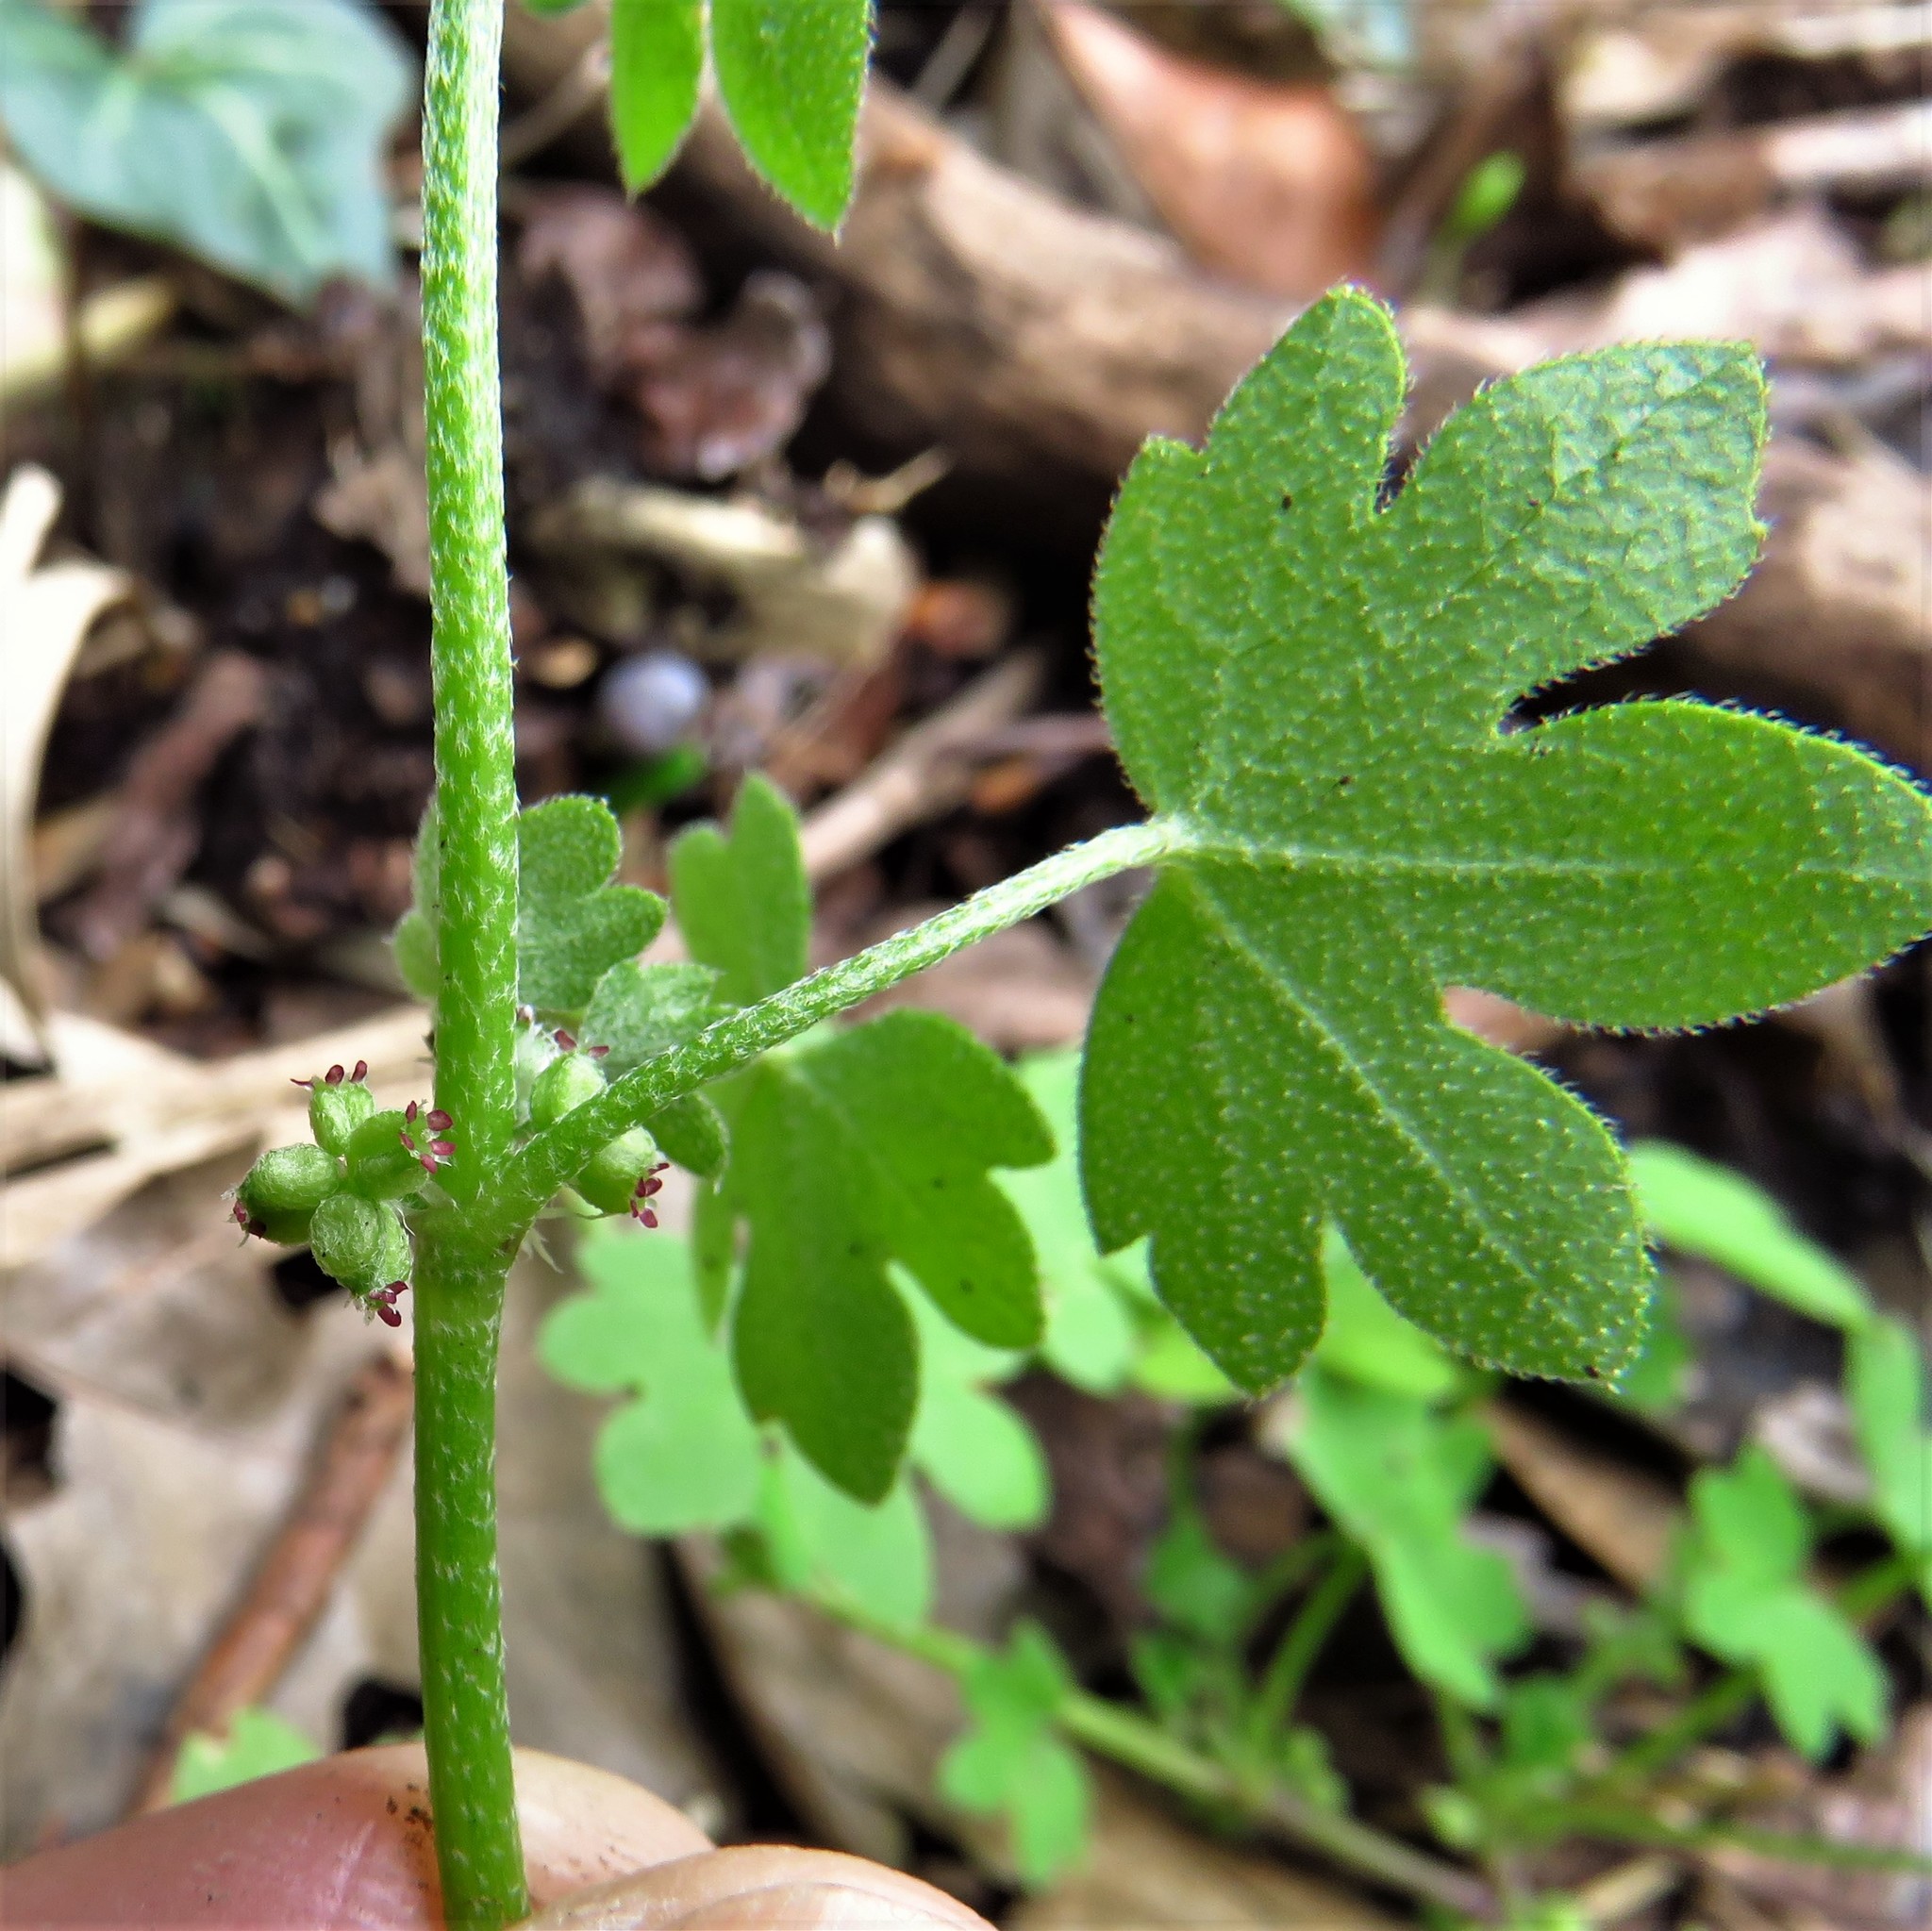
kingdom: Plantae
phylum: Tracheophyta
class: Magnoliopsida
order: Apiales
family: Apiaceae
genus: Bowlesia
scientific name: Bowlesia incana
